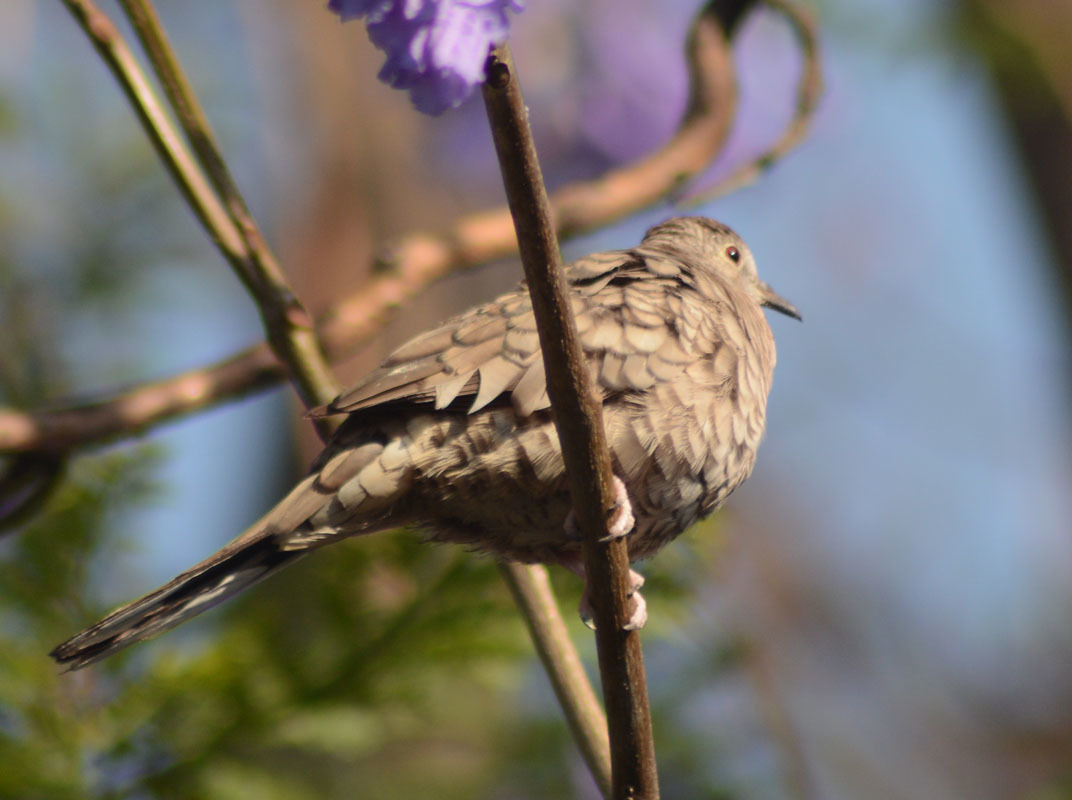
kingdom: Animalia
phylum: Chordata
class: Aves
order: Columbiformes
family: Columbidae
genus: Columbina
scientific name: Columbina inca
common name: Inca dove
